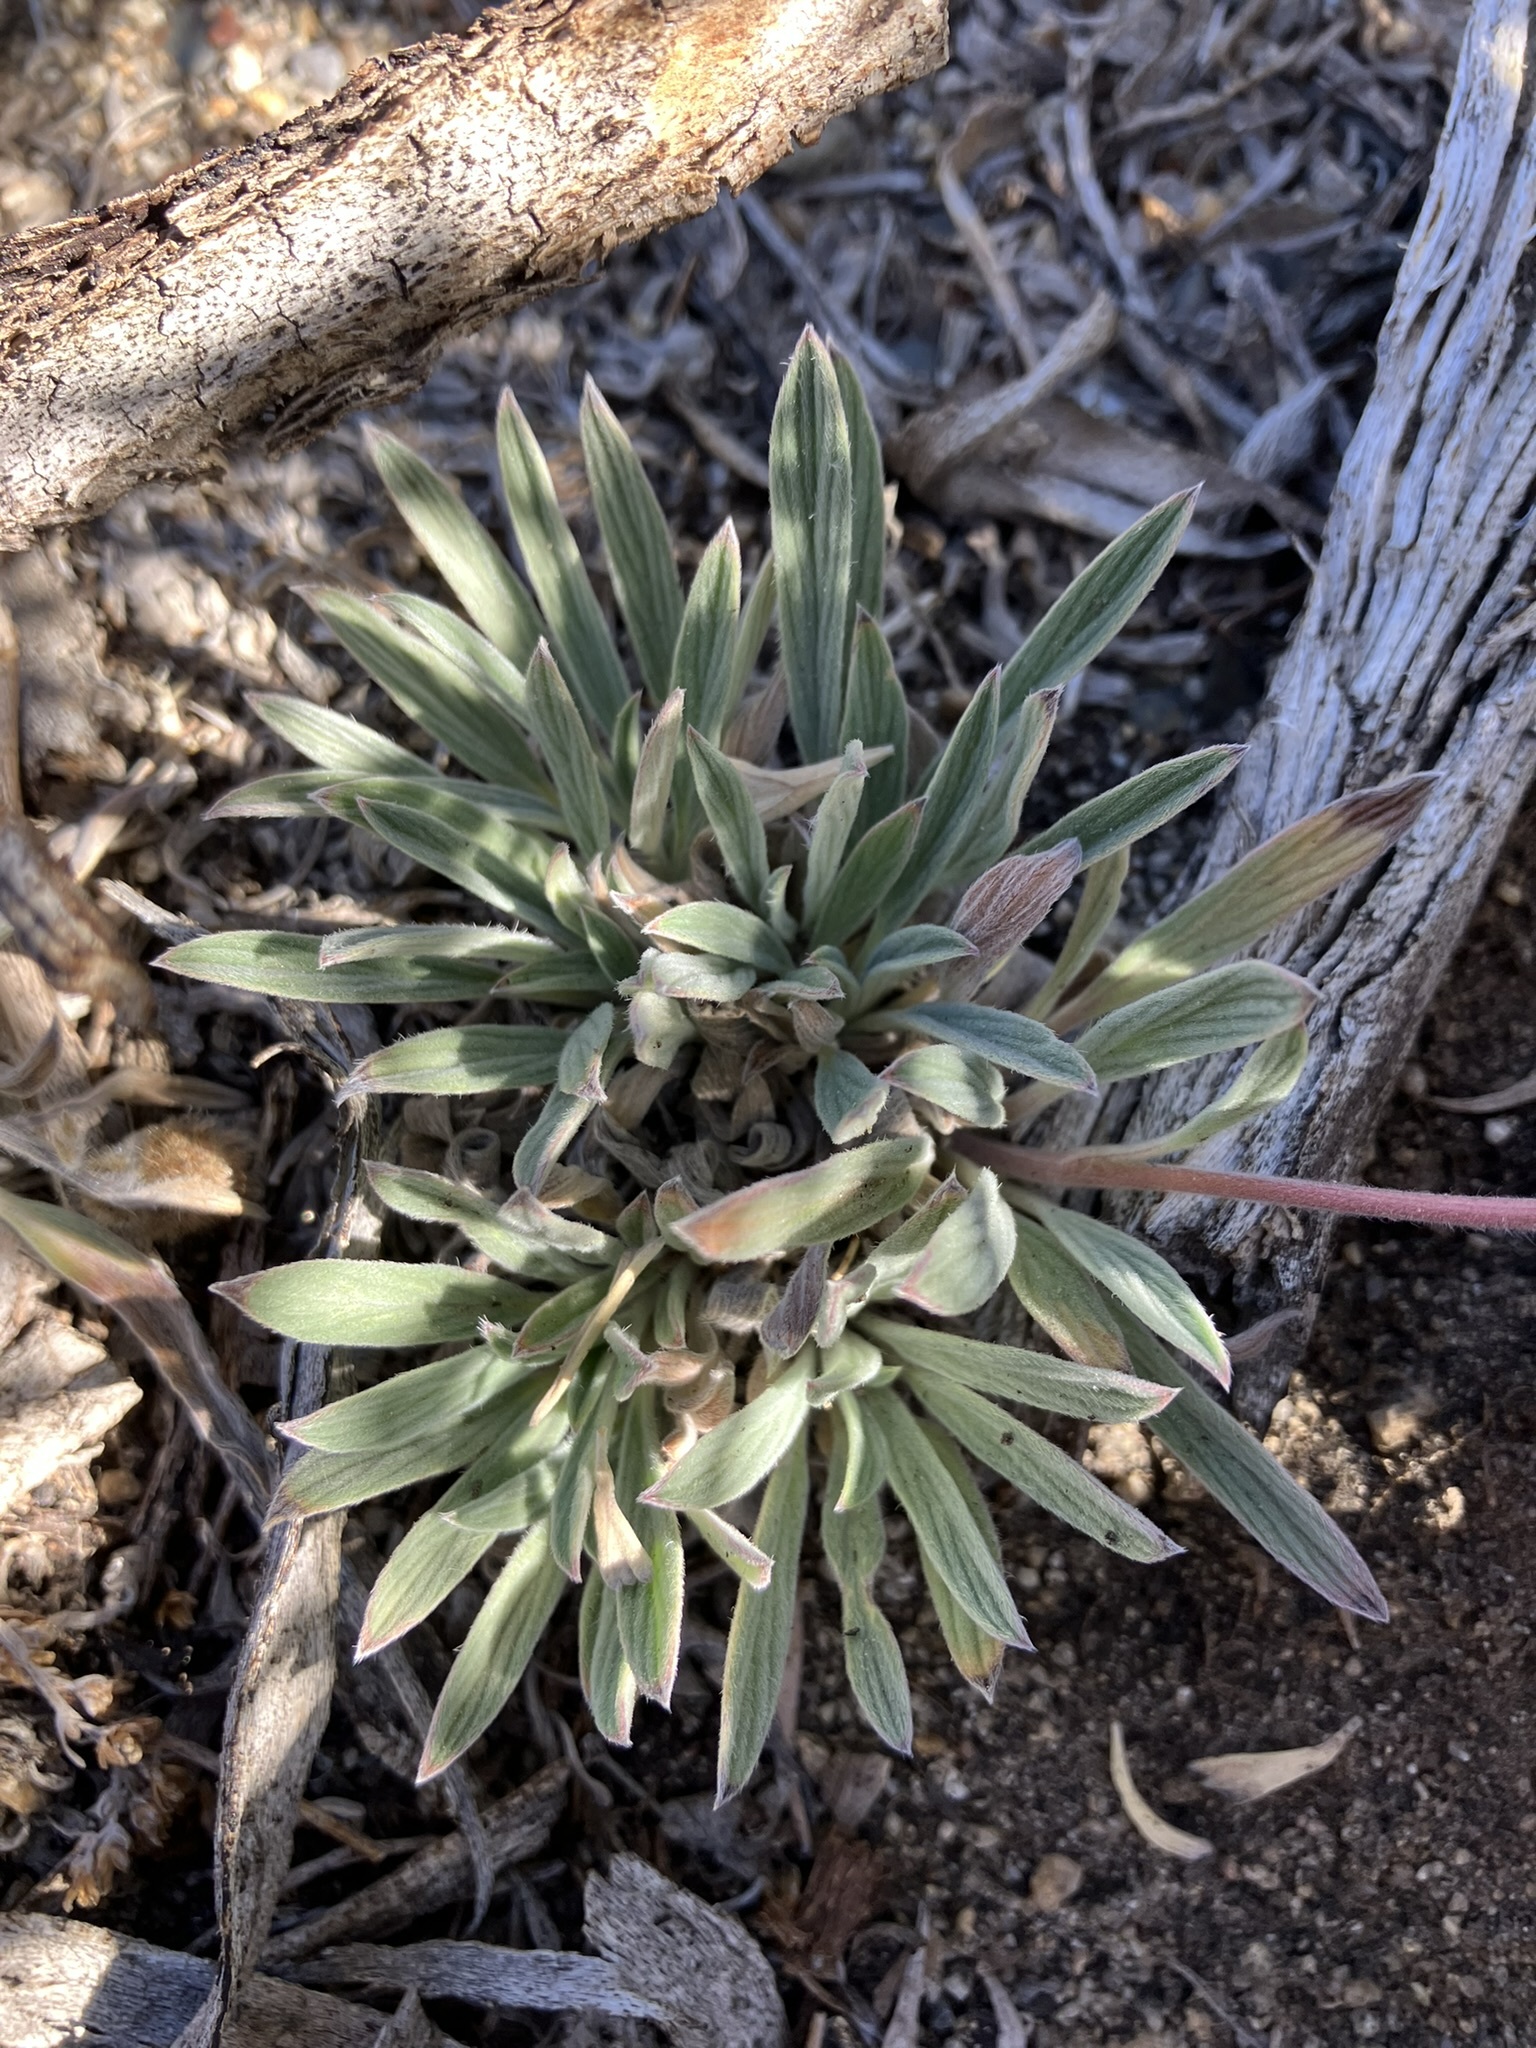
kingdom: Plantae
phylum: Tracheophyta
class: Magnoliopsida
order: Boraginales
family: Hydrophyllaceae
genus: Phacelia
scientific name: Phacelia hastata
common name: Silver-leaved phacelia
